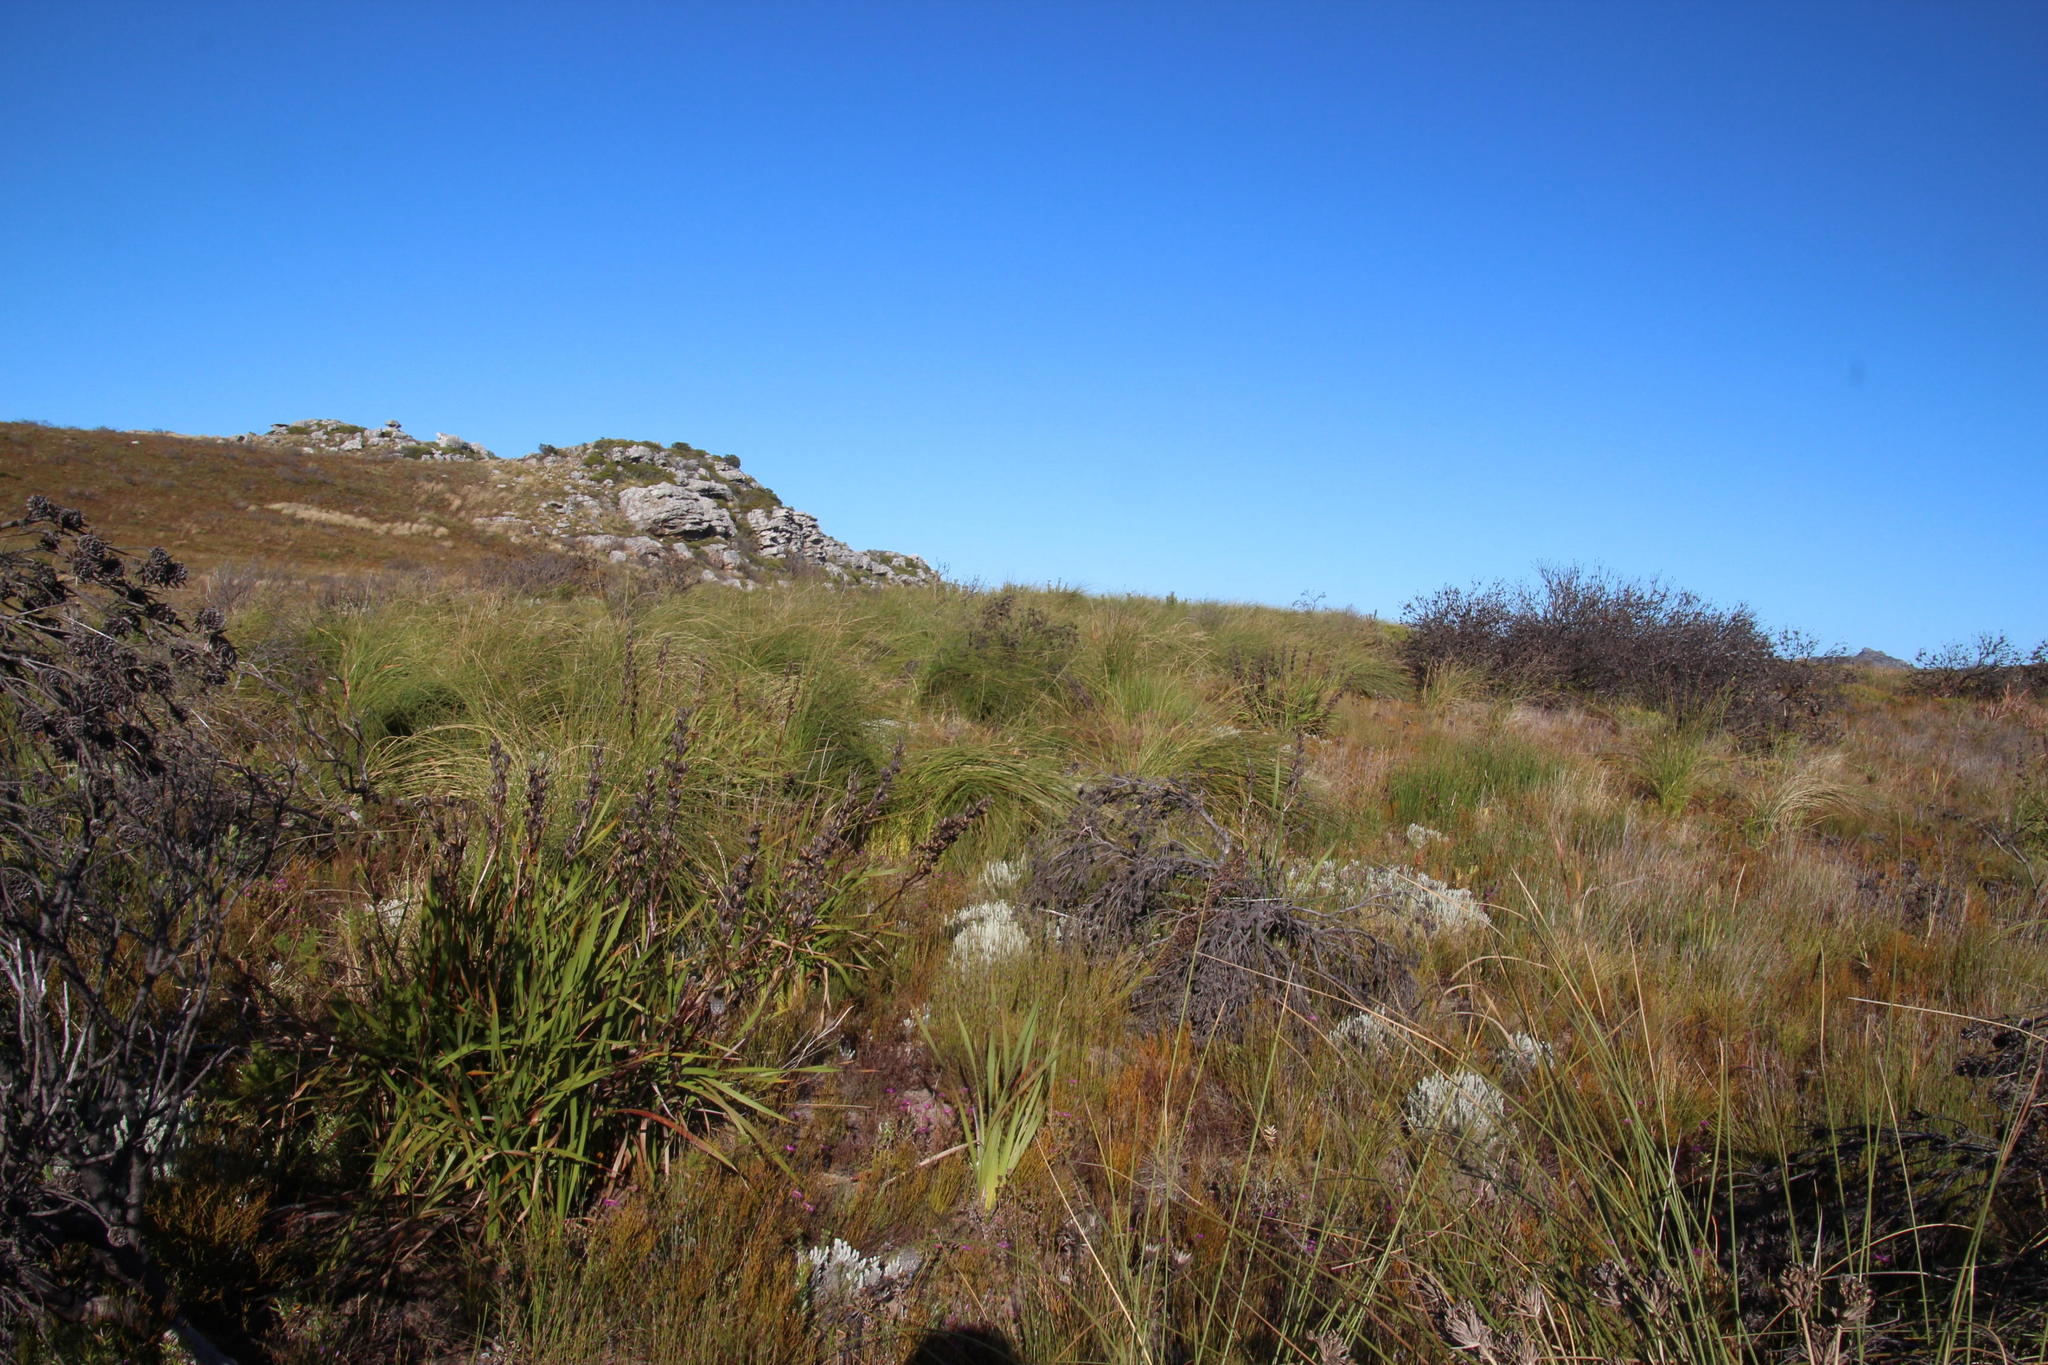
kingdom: Plantae
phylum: Tracheophyta
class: Liliopsida
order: Asparagales
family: Iridaceae
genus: Bobartia
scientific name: Bobartia indica
